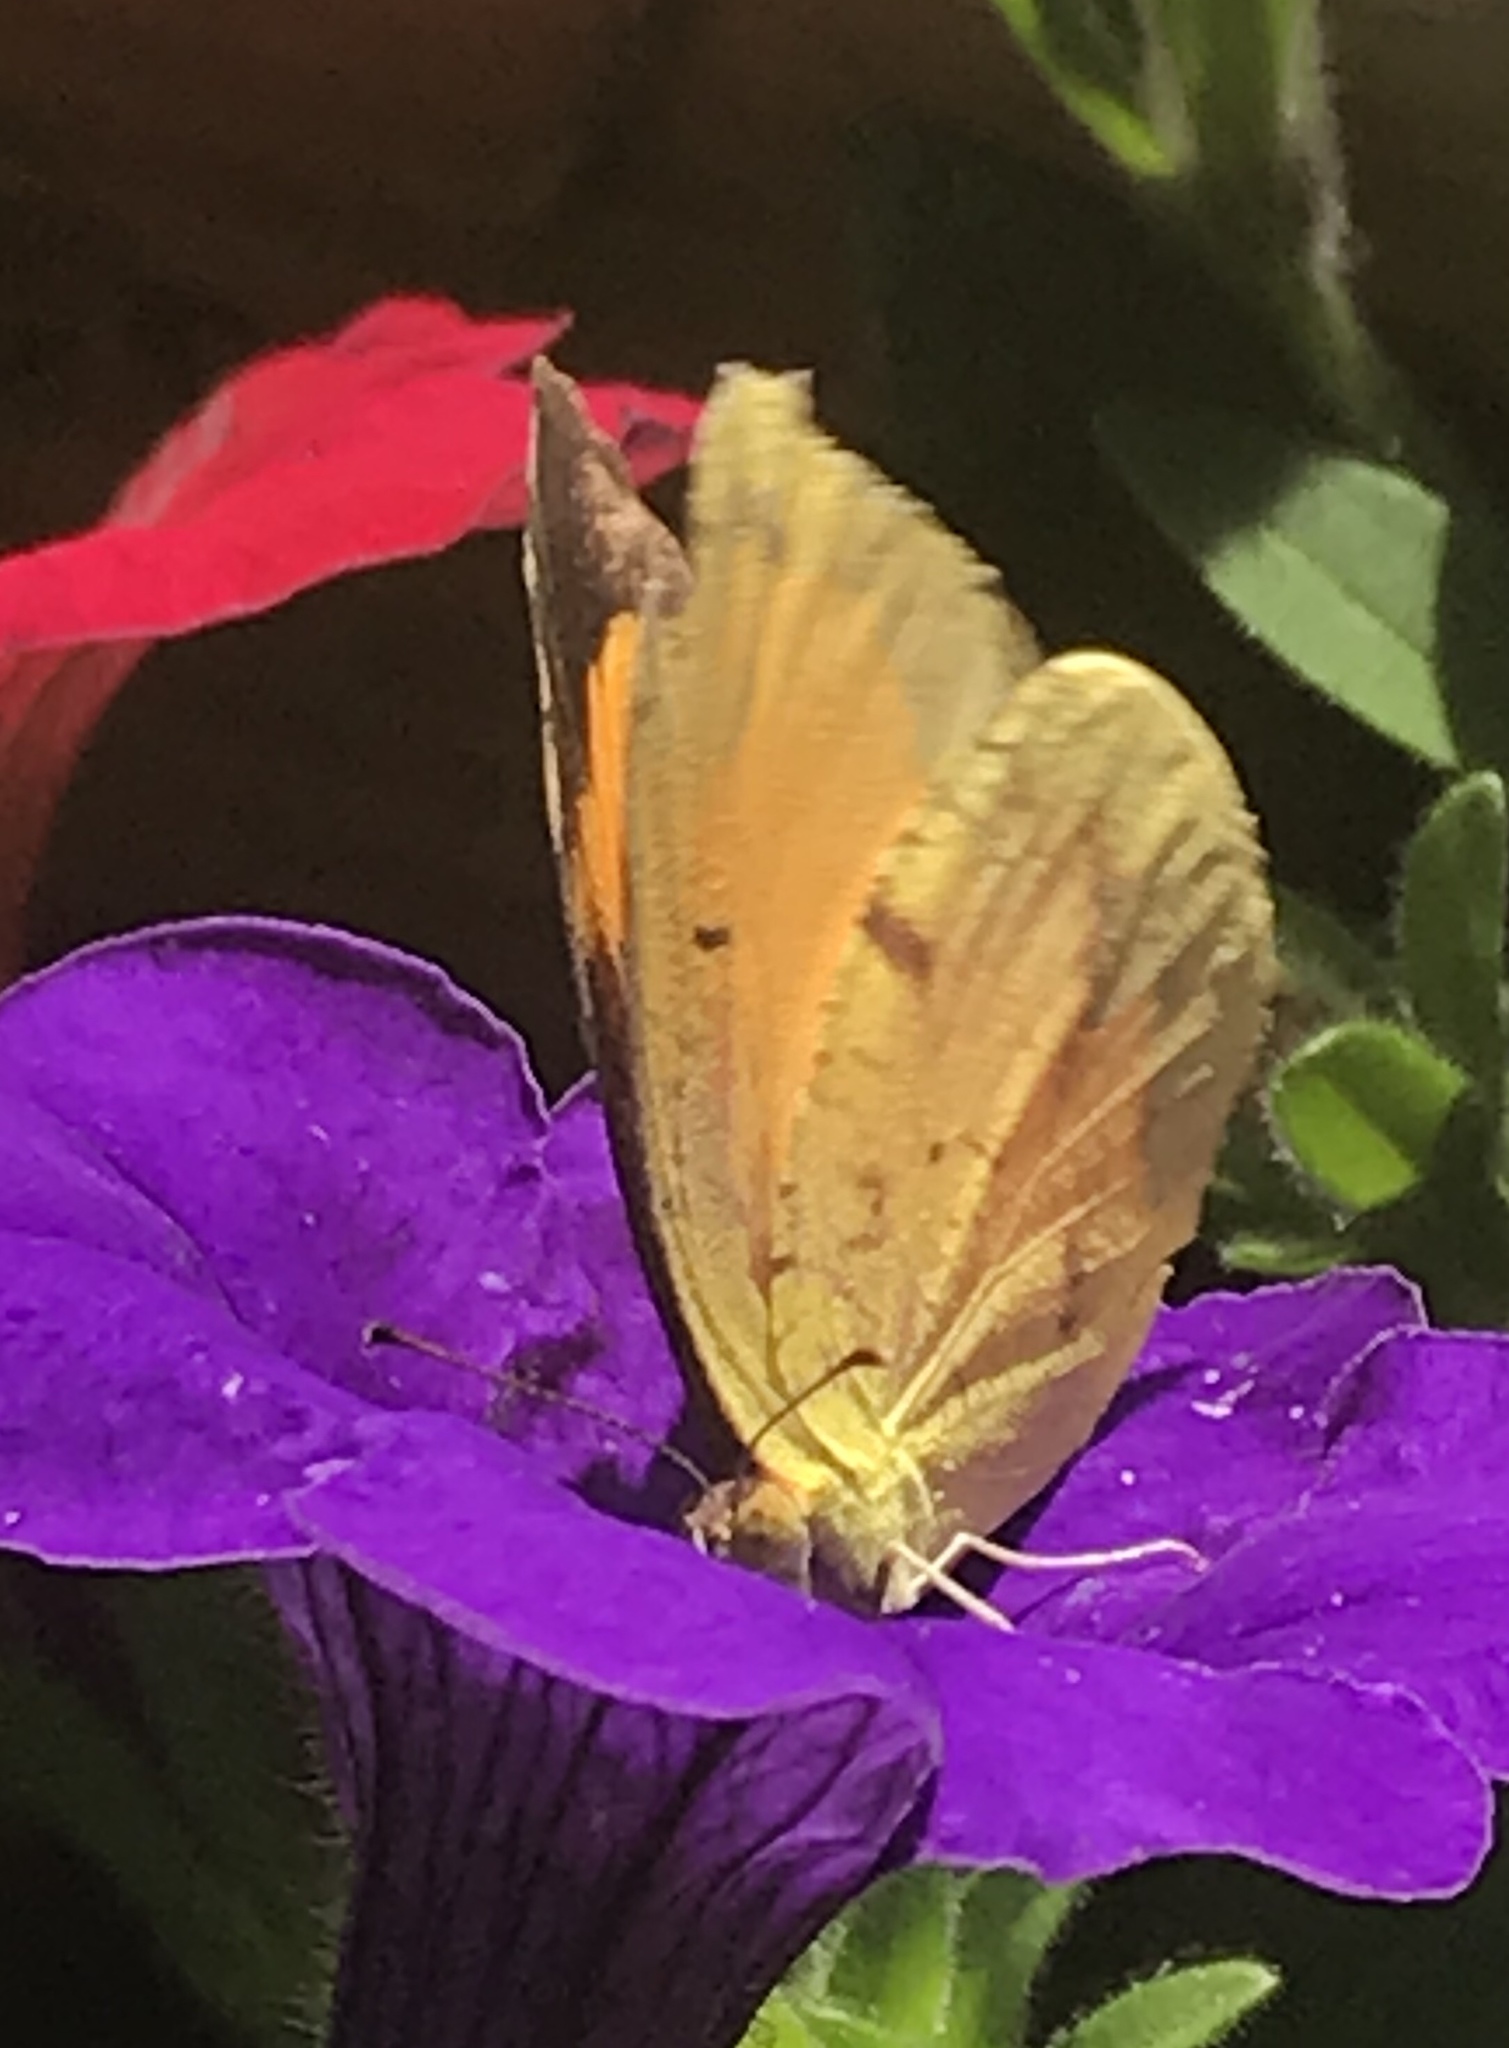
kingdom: Animalia
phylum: Arthropoda
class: Insecta
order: Lepidoptera
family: Pieridae
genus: Abaeis
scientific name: Abaeis nicippe
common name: Sleepy orange
